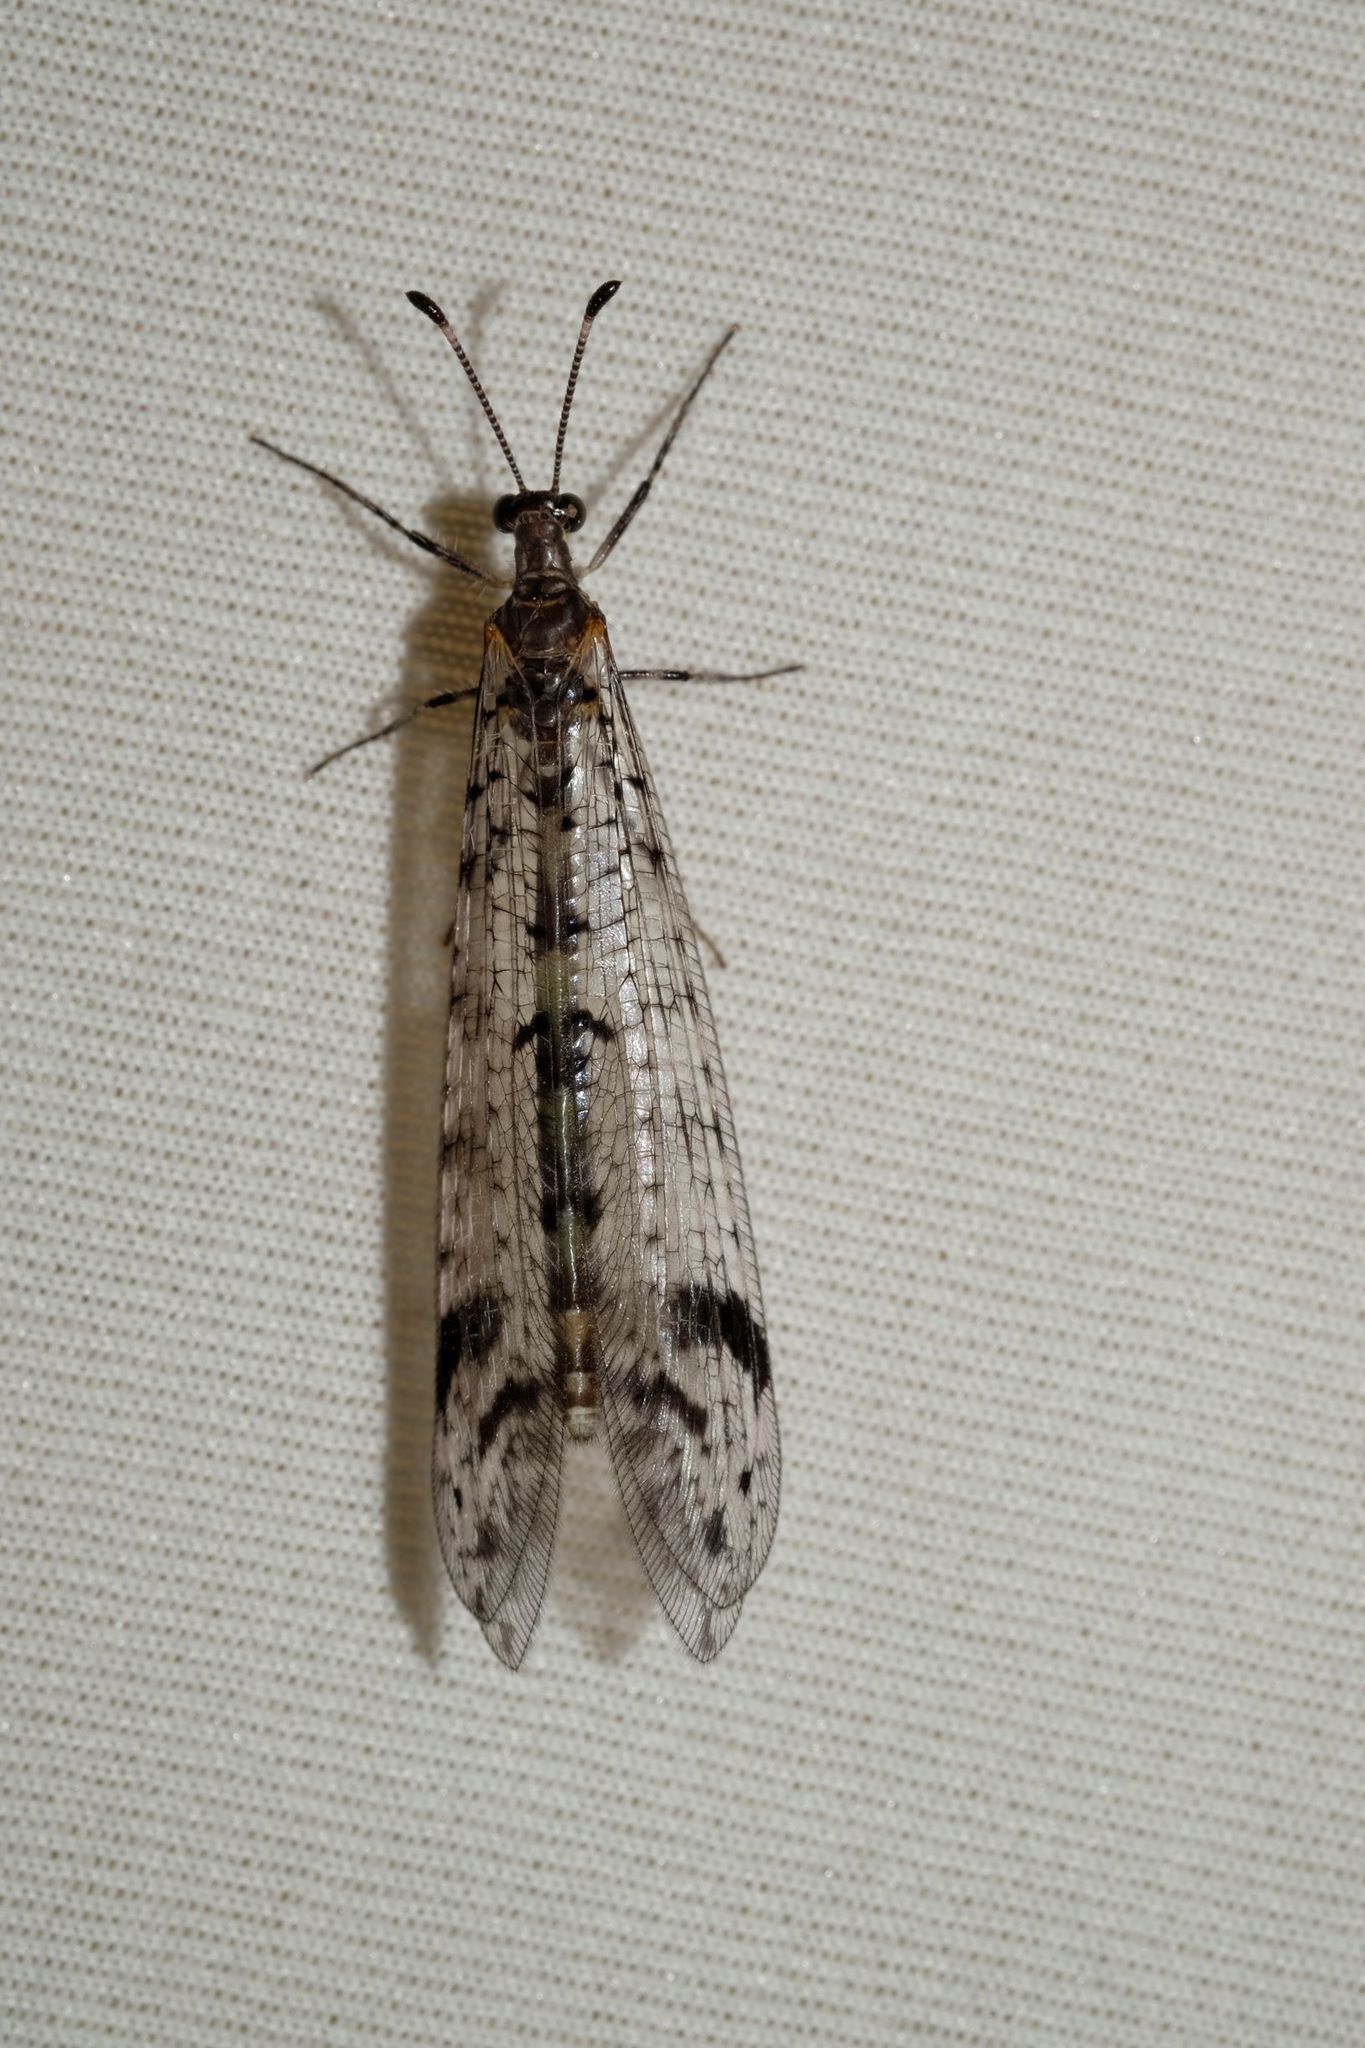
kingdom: Animalia
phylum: Arthropoda
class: Insecta
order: Neuroptera
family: Myrmeleontidae
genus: Dendroleon
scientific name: Dendroleon longipennis
